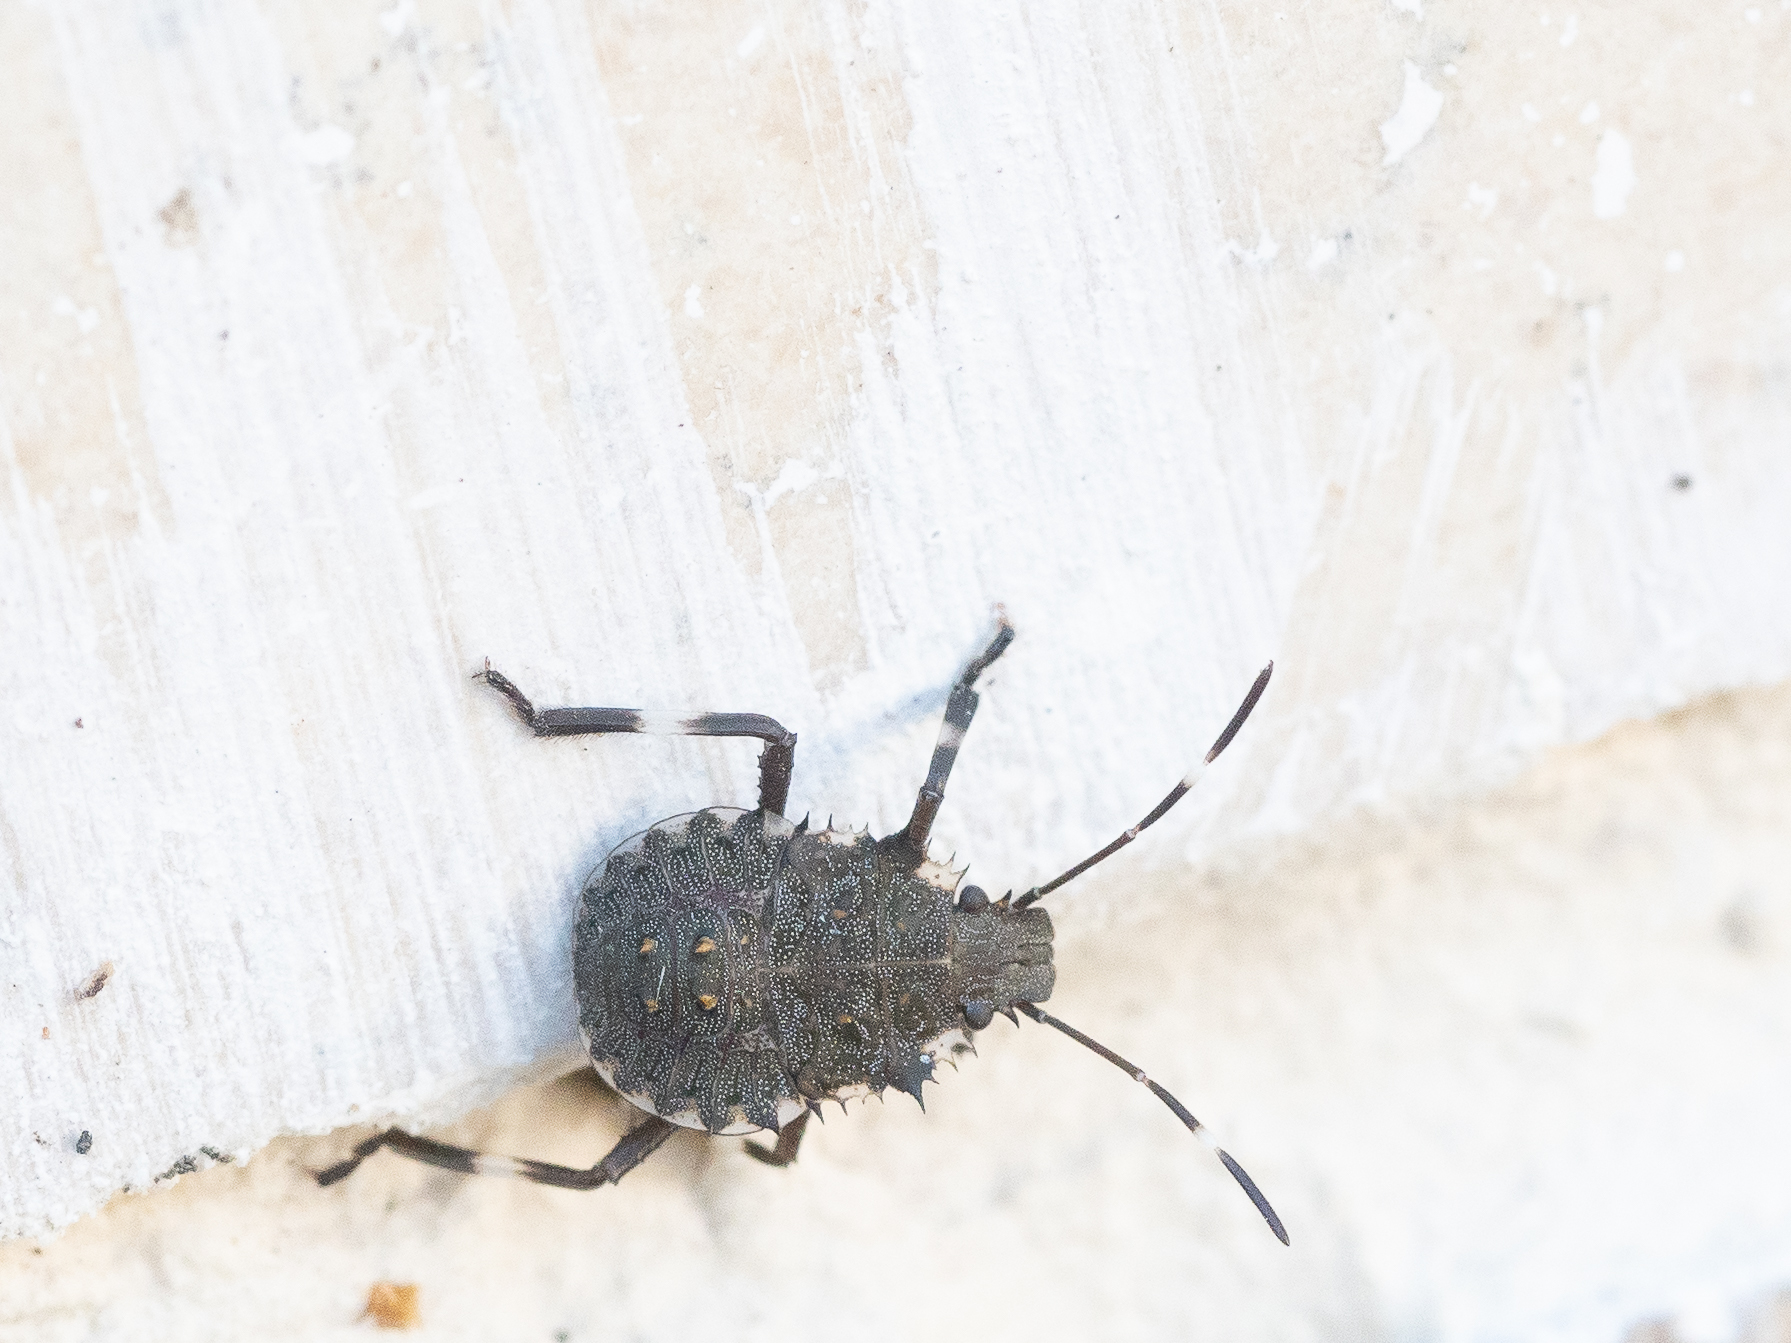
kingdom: Animalia
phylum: Arthropoda
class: Insecta
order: Hemiptera
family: Pentatomidae
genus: Halyomorpha
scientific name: Halyomorpha halys
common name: Brown marmorated stink bug
